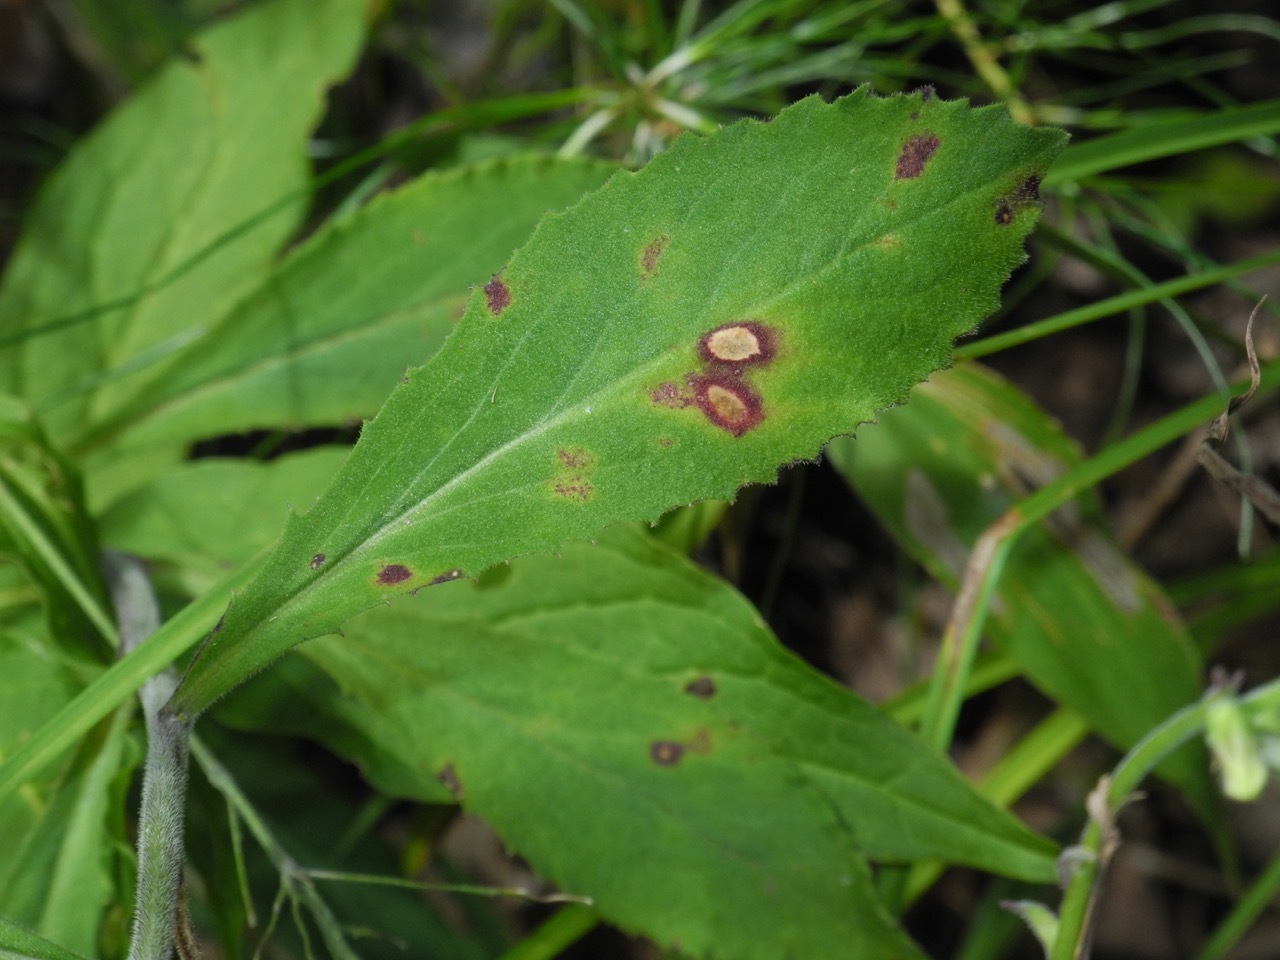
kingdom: Plantae
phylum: Tracheophyta
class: Magnoliopsida
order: Asterales
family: Campanulaceae
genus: Lobelia
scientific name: Lobelia puberula
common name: Purple dewdrop
